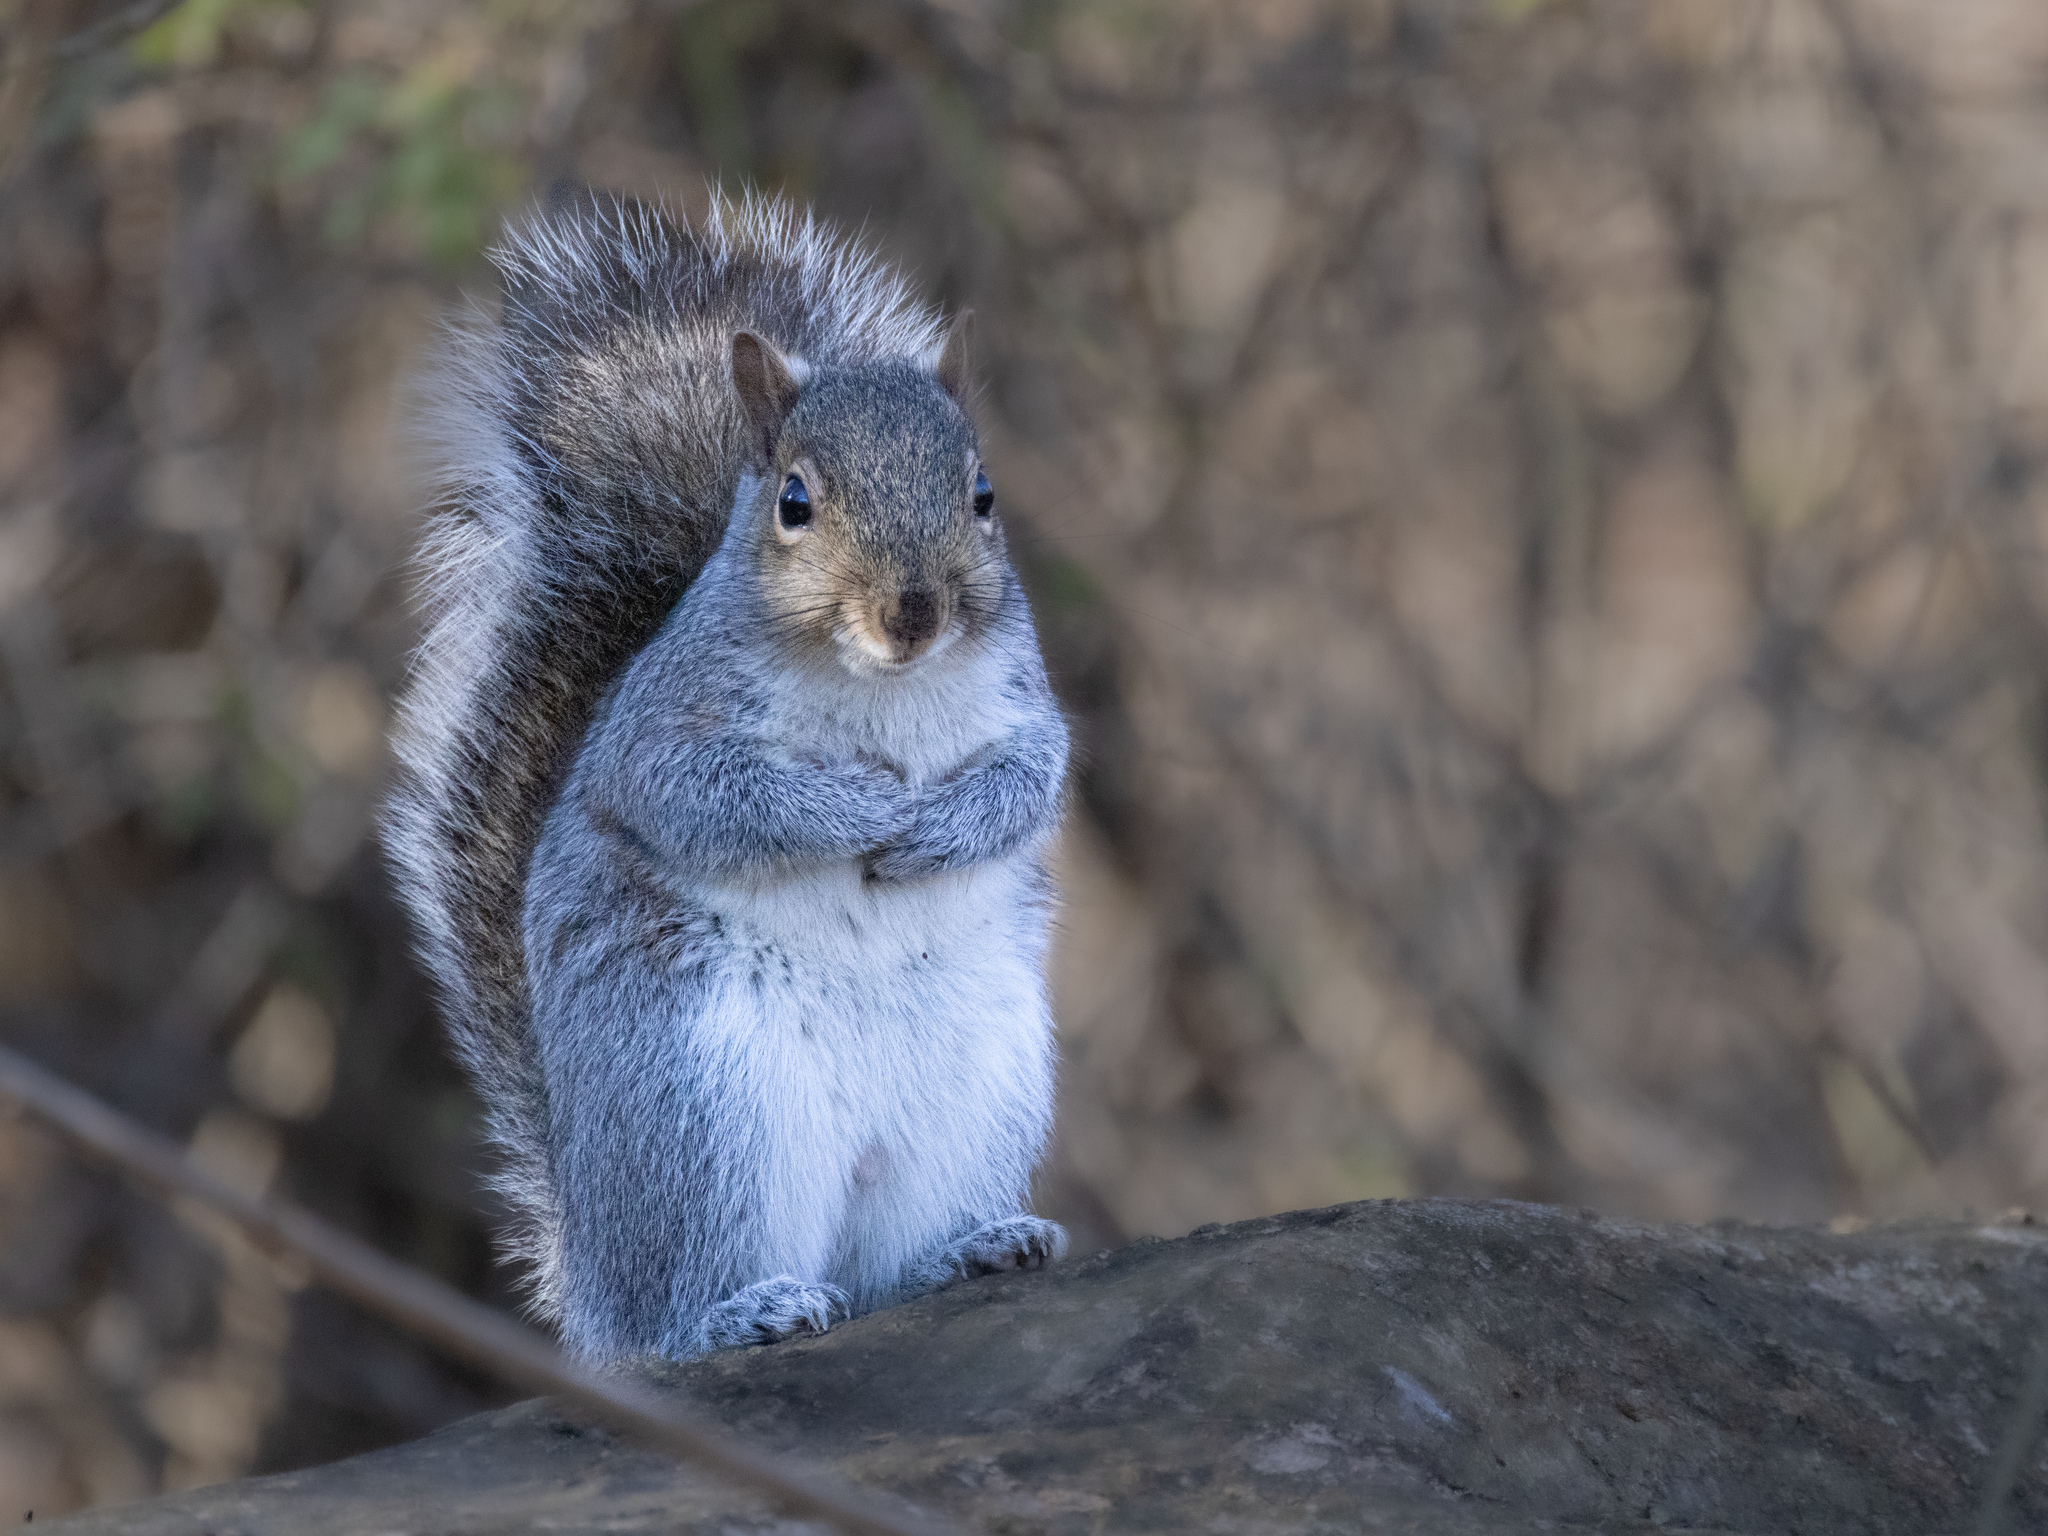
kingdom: Animalia
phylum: Chordata
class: Mammalia
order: Rodentia
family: Sciuridae
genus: Sciurus
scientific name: Sciurus carolinensis
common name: Eastern gray squirrel
